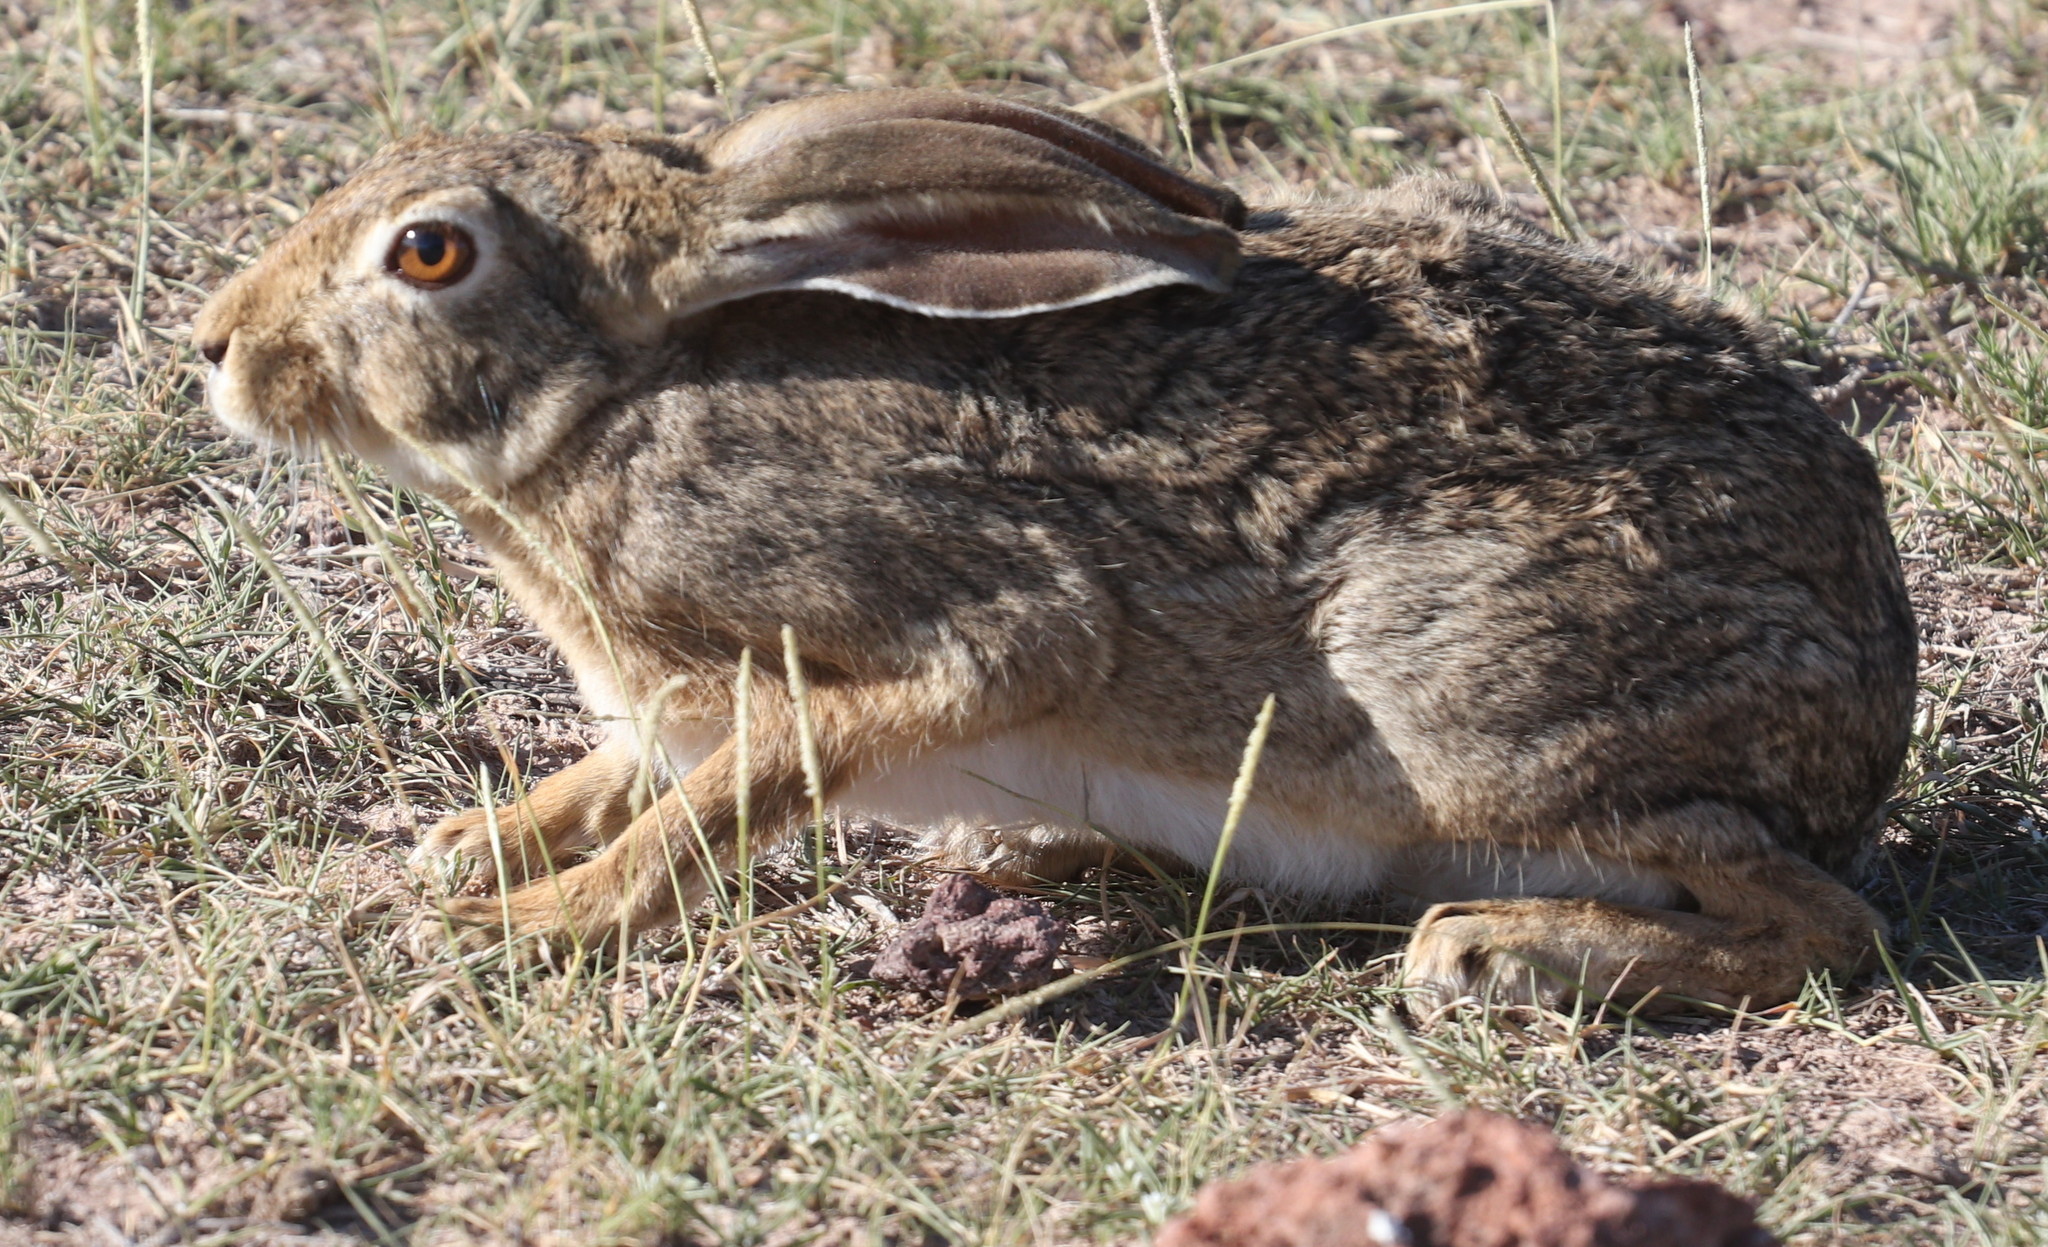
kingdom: Animalia
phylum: Chordata
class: Mammalia
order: Lagomorpha
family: Leporidae
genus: Lepus
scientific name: Lepus victoriae
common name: African savanna hare
